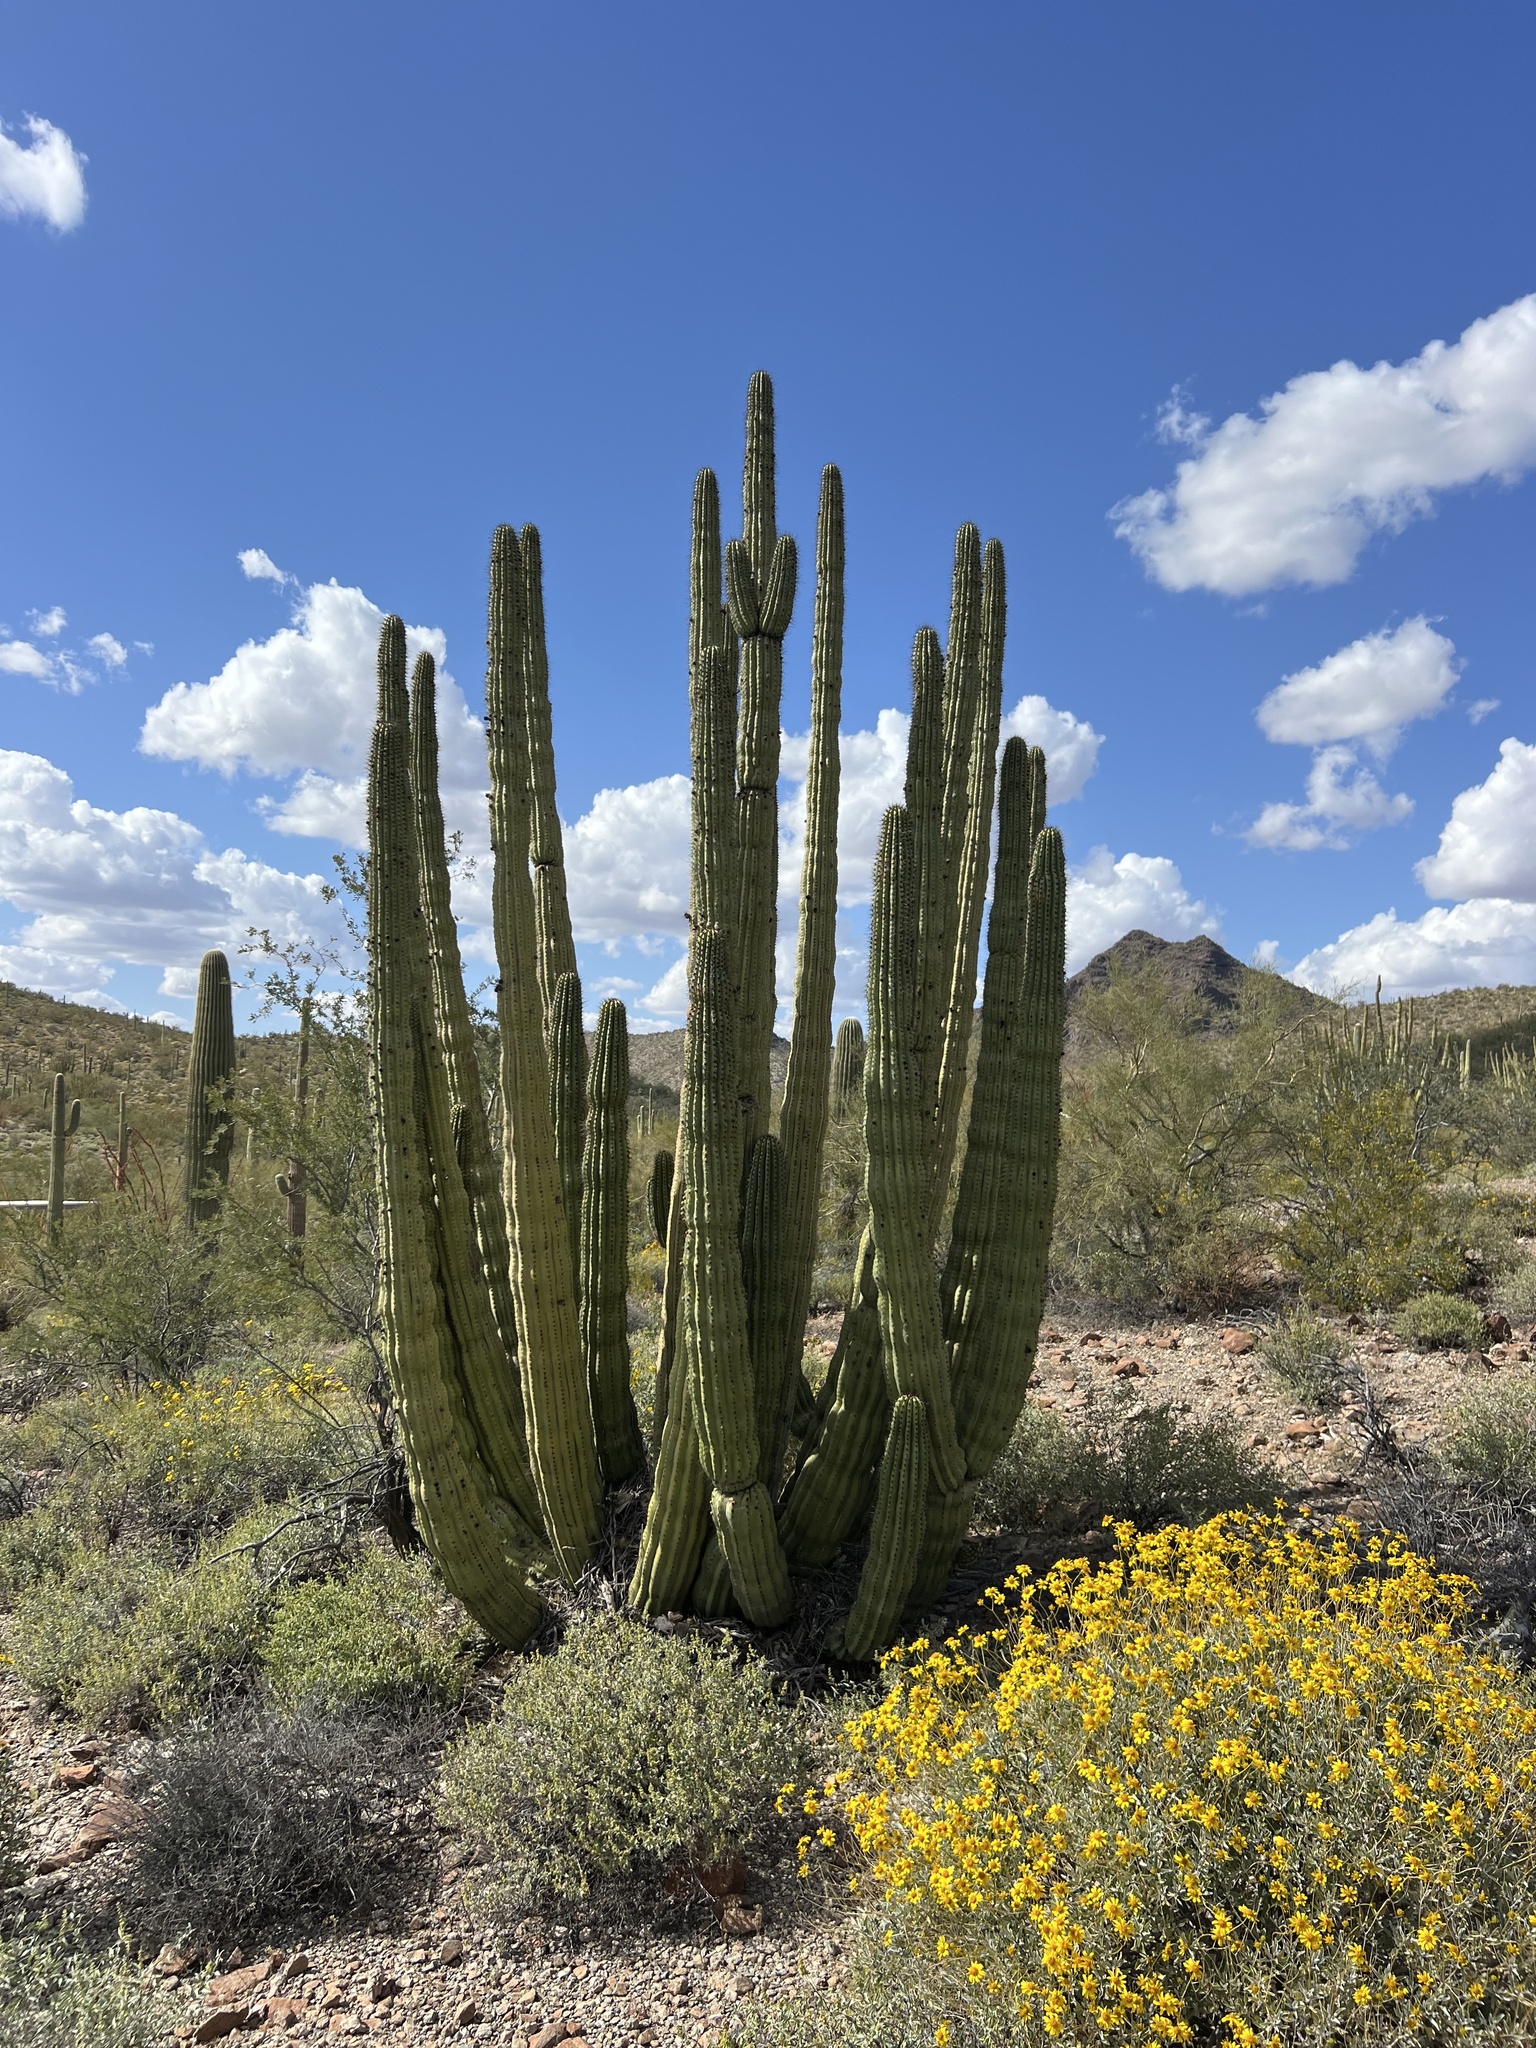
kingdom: Plantae
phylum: Tracheophyta
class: Magnoliopsida
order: Caryophyllales
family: Cactaceae
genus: Stenocereus
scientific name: Stenocereus thurberi
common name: Organ pipe cactus
